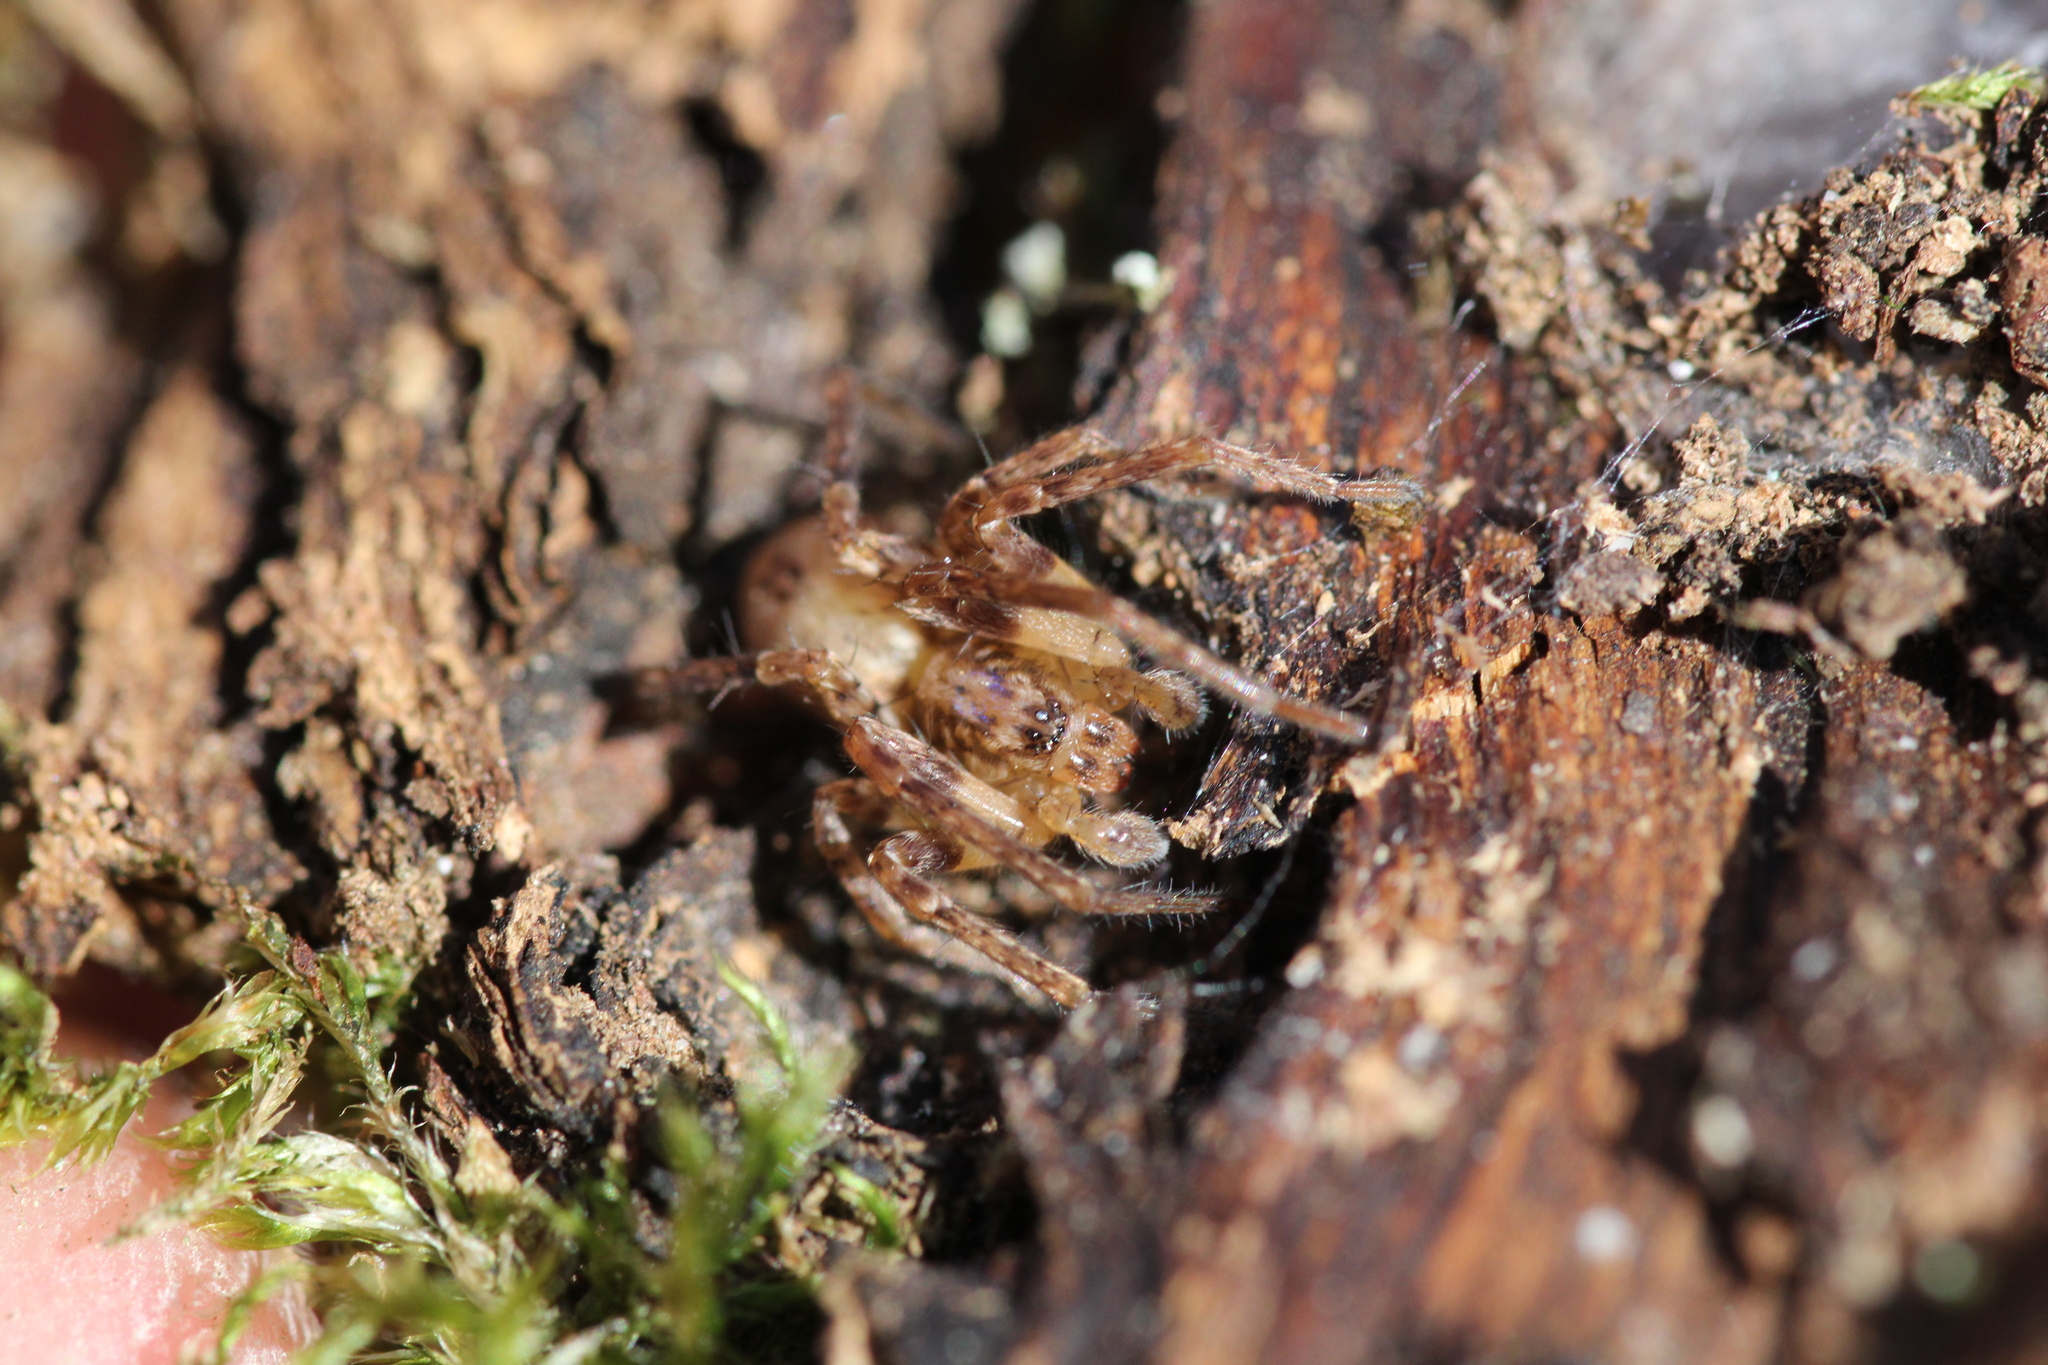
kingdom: Animalia
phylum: Arthropoda
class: Arachnida
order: Araneae
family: Anyphaenidae
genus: Anyphaena
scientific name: Anyphaena accentuata
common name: Buzzing spider
